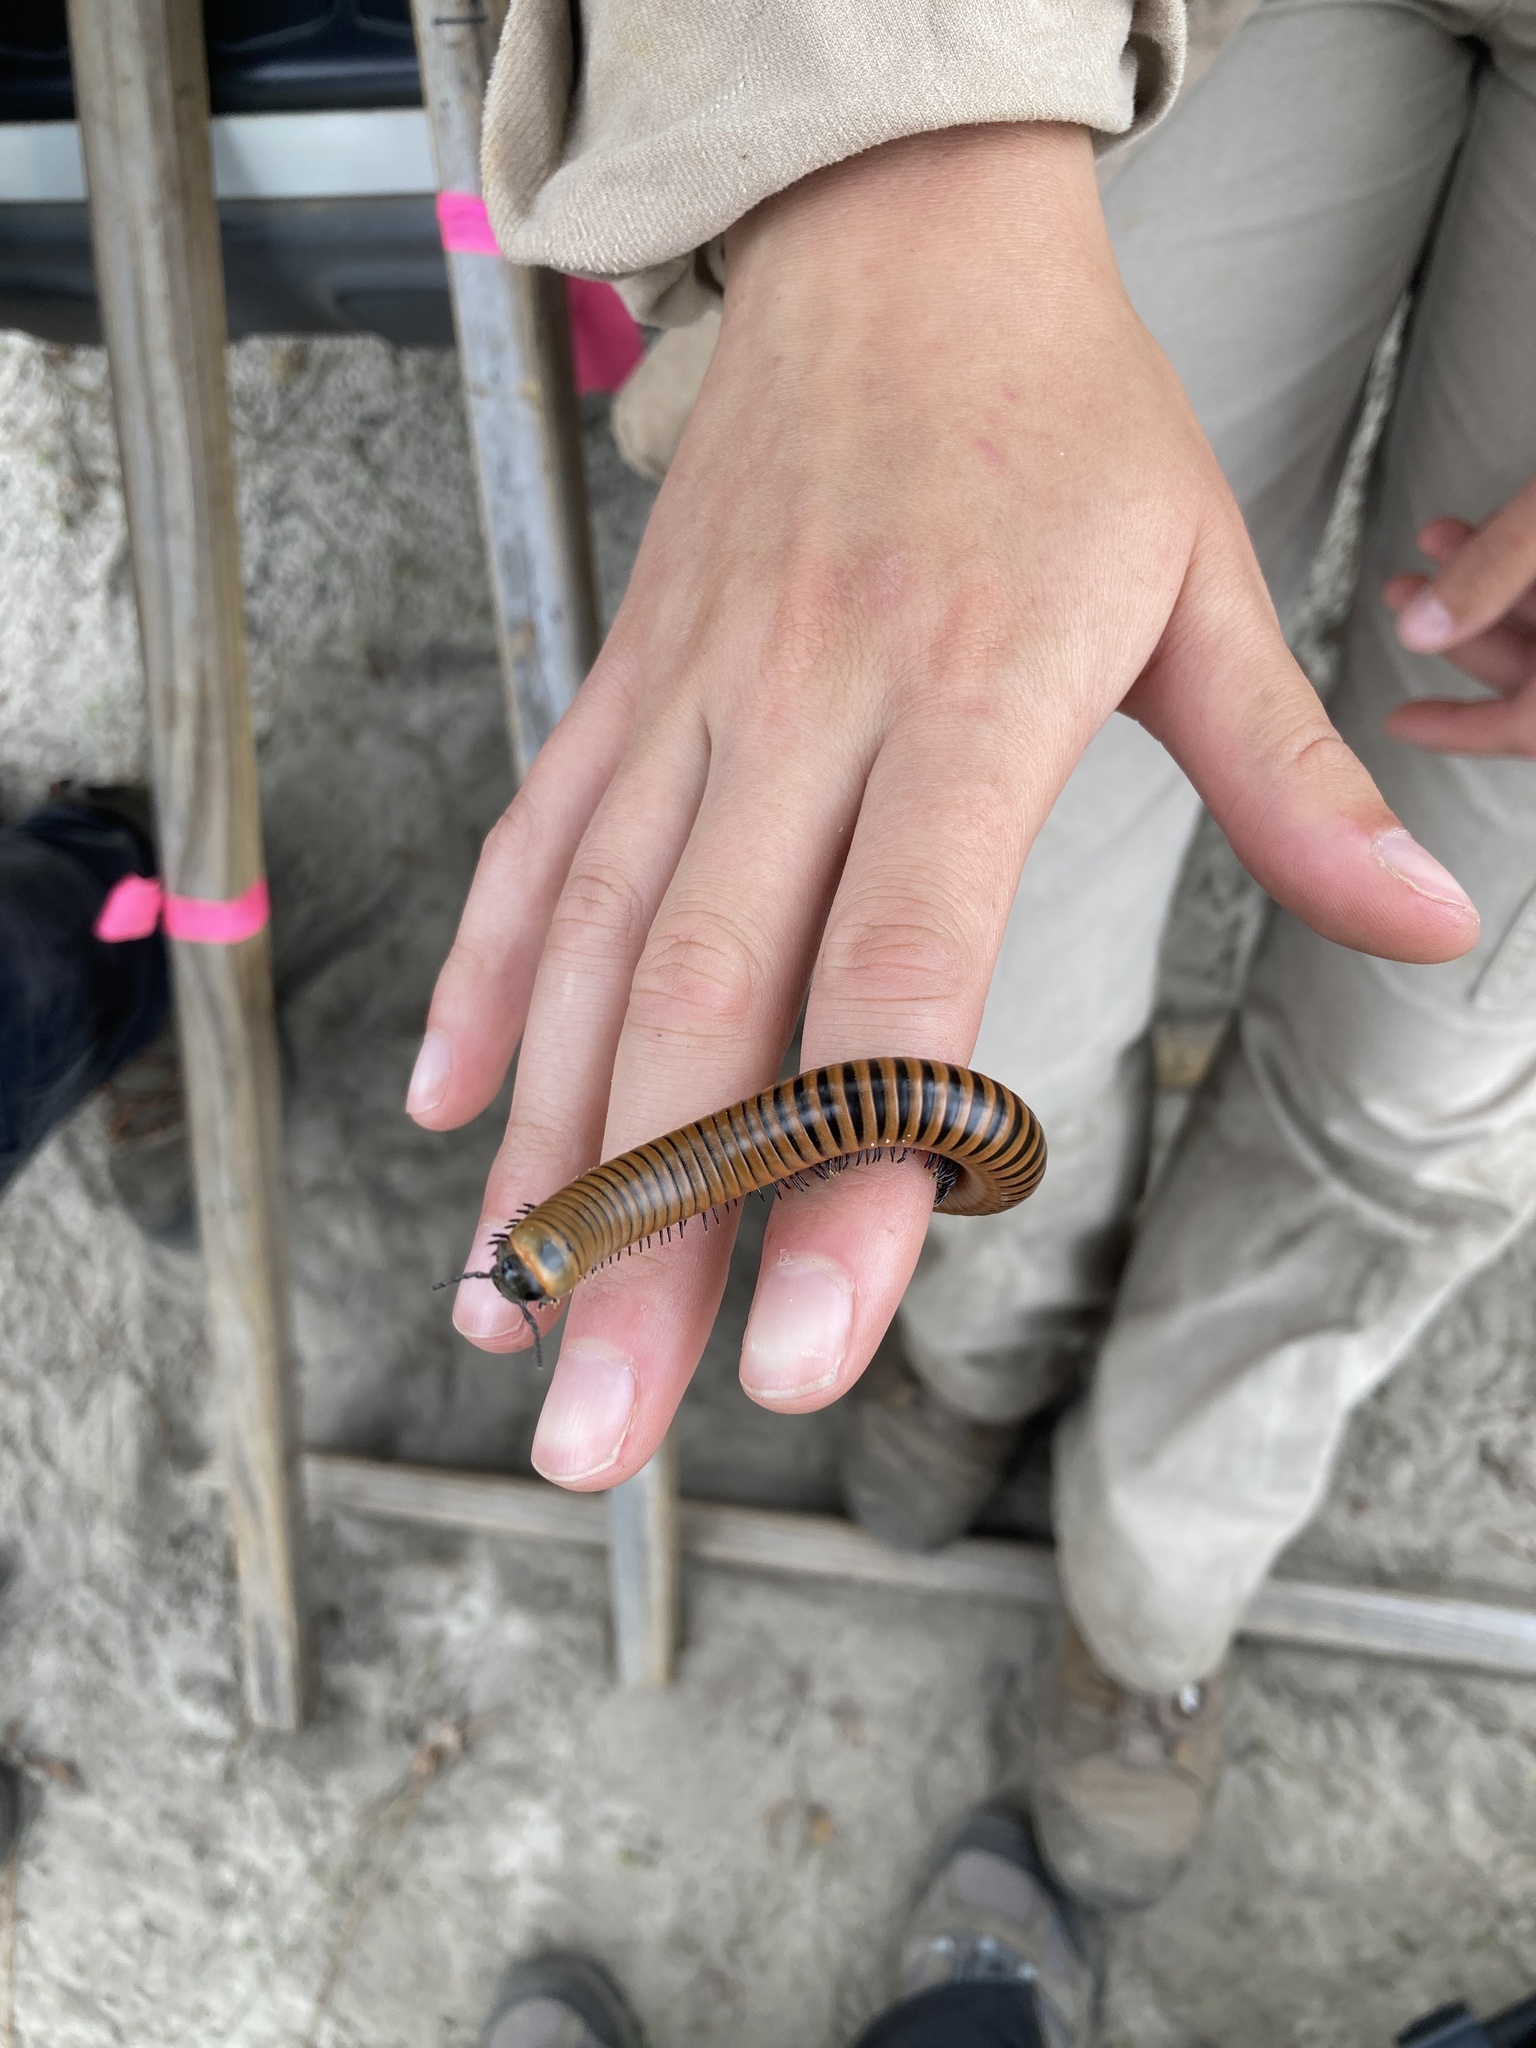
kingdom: Animalia
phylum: Arthropoda
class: Diplopoda
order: Spirobolida
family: Spirobolidae
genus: Chicobolus
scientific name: Chicobolus spinigerus
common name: Florida ivory millipede
